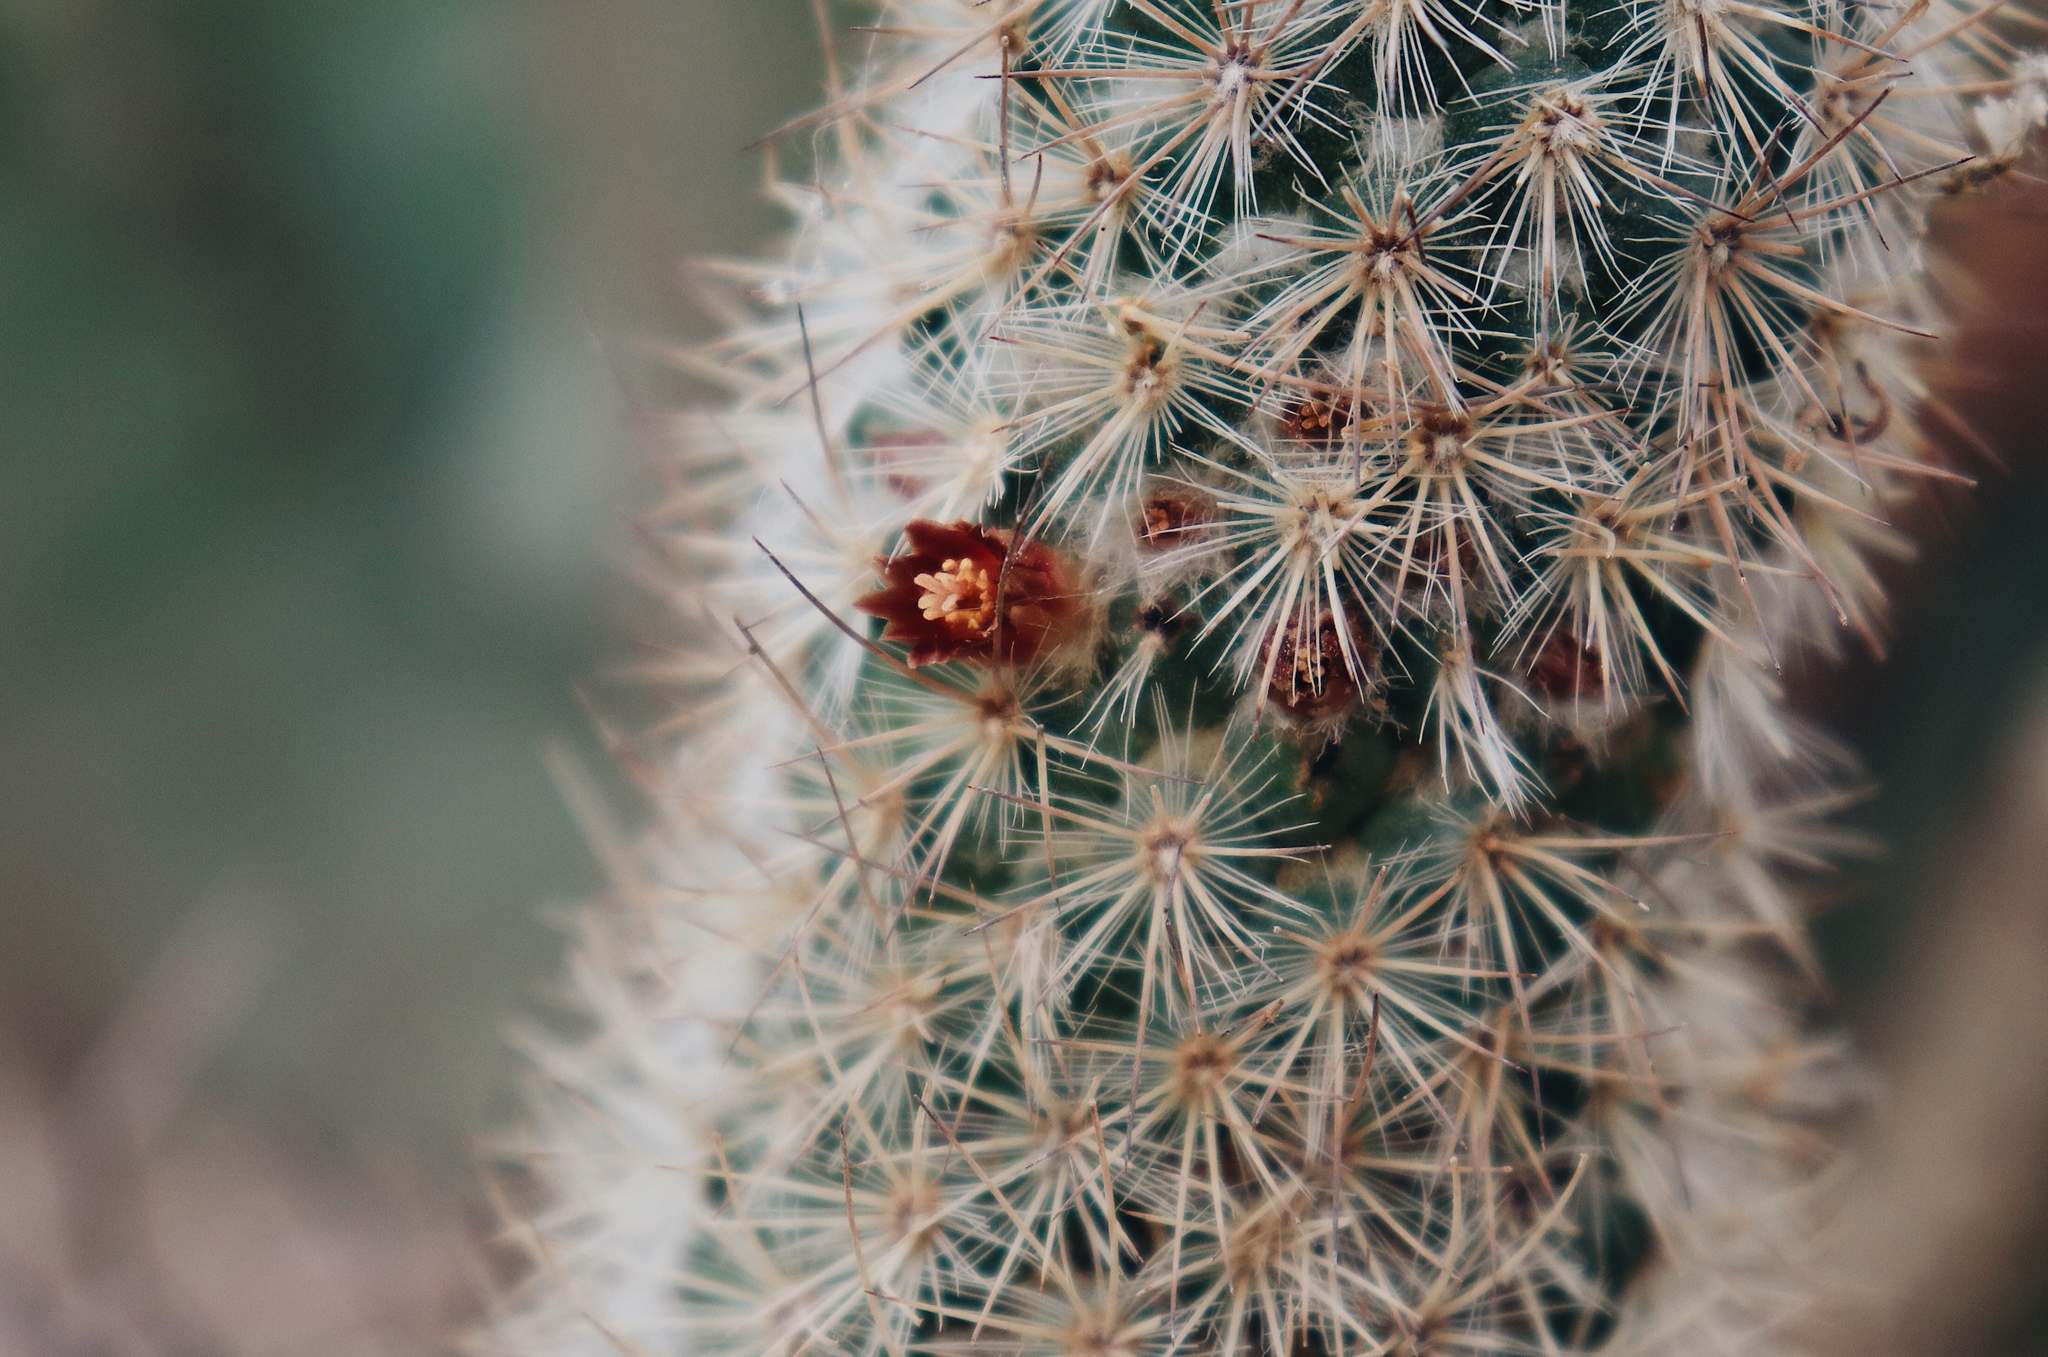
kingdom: Plantae
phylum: Tracheophyta
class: Magnoliopsida
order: Caryophyllales
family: Cactaceae
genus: Mammillaria
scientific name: Mammillaria pottsii
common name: Pott's nipple-cactus
